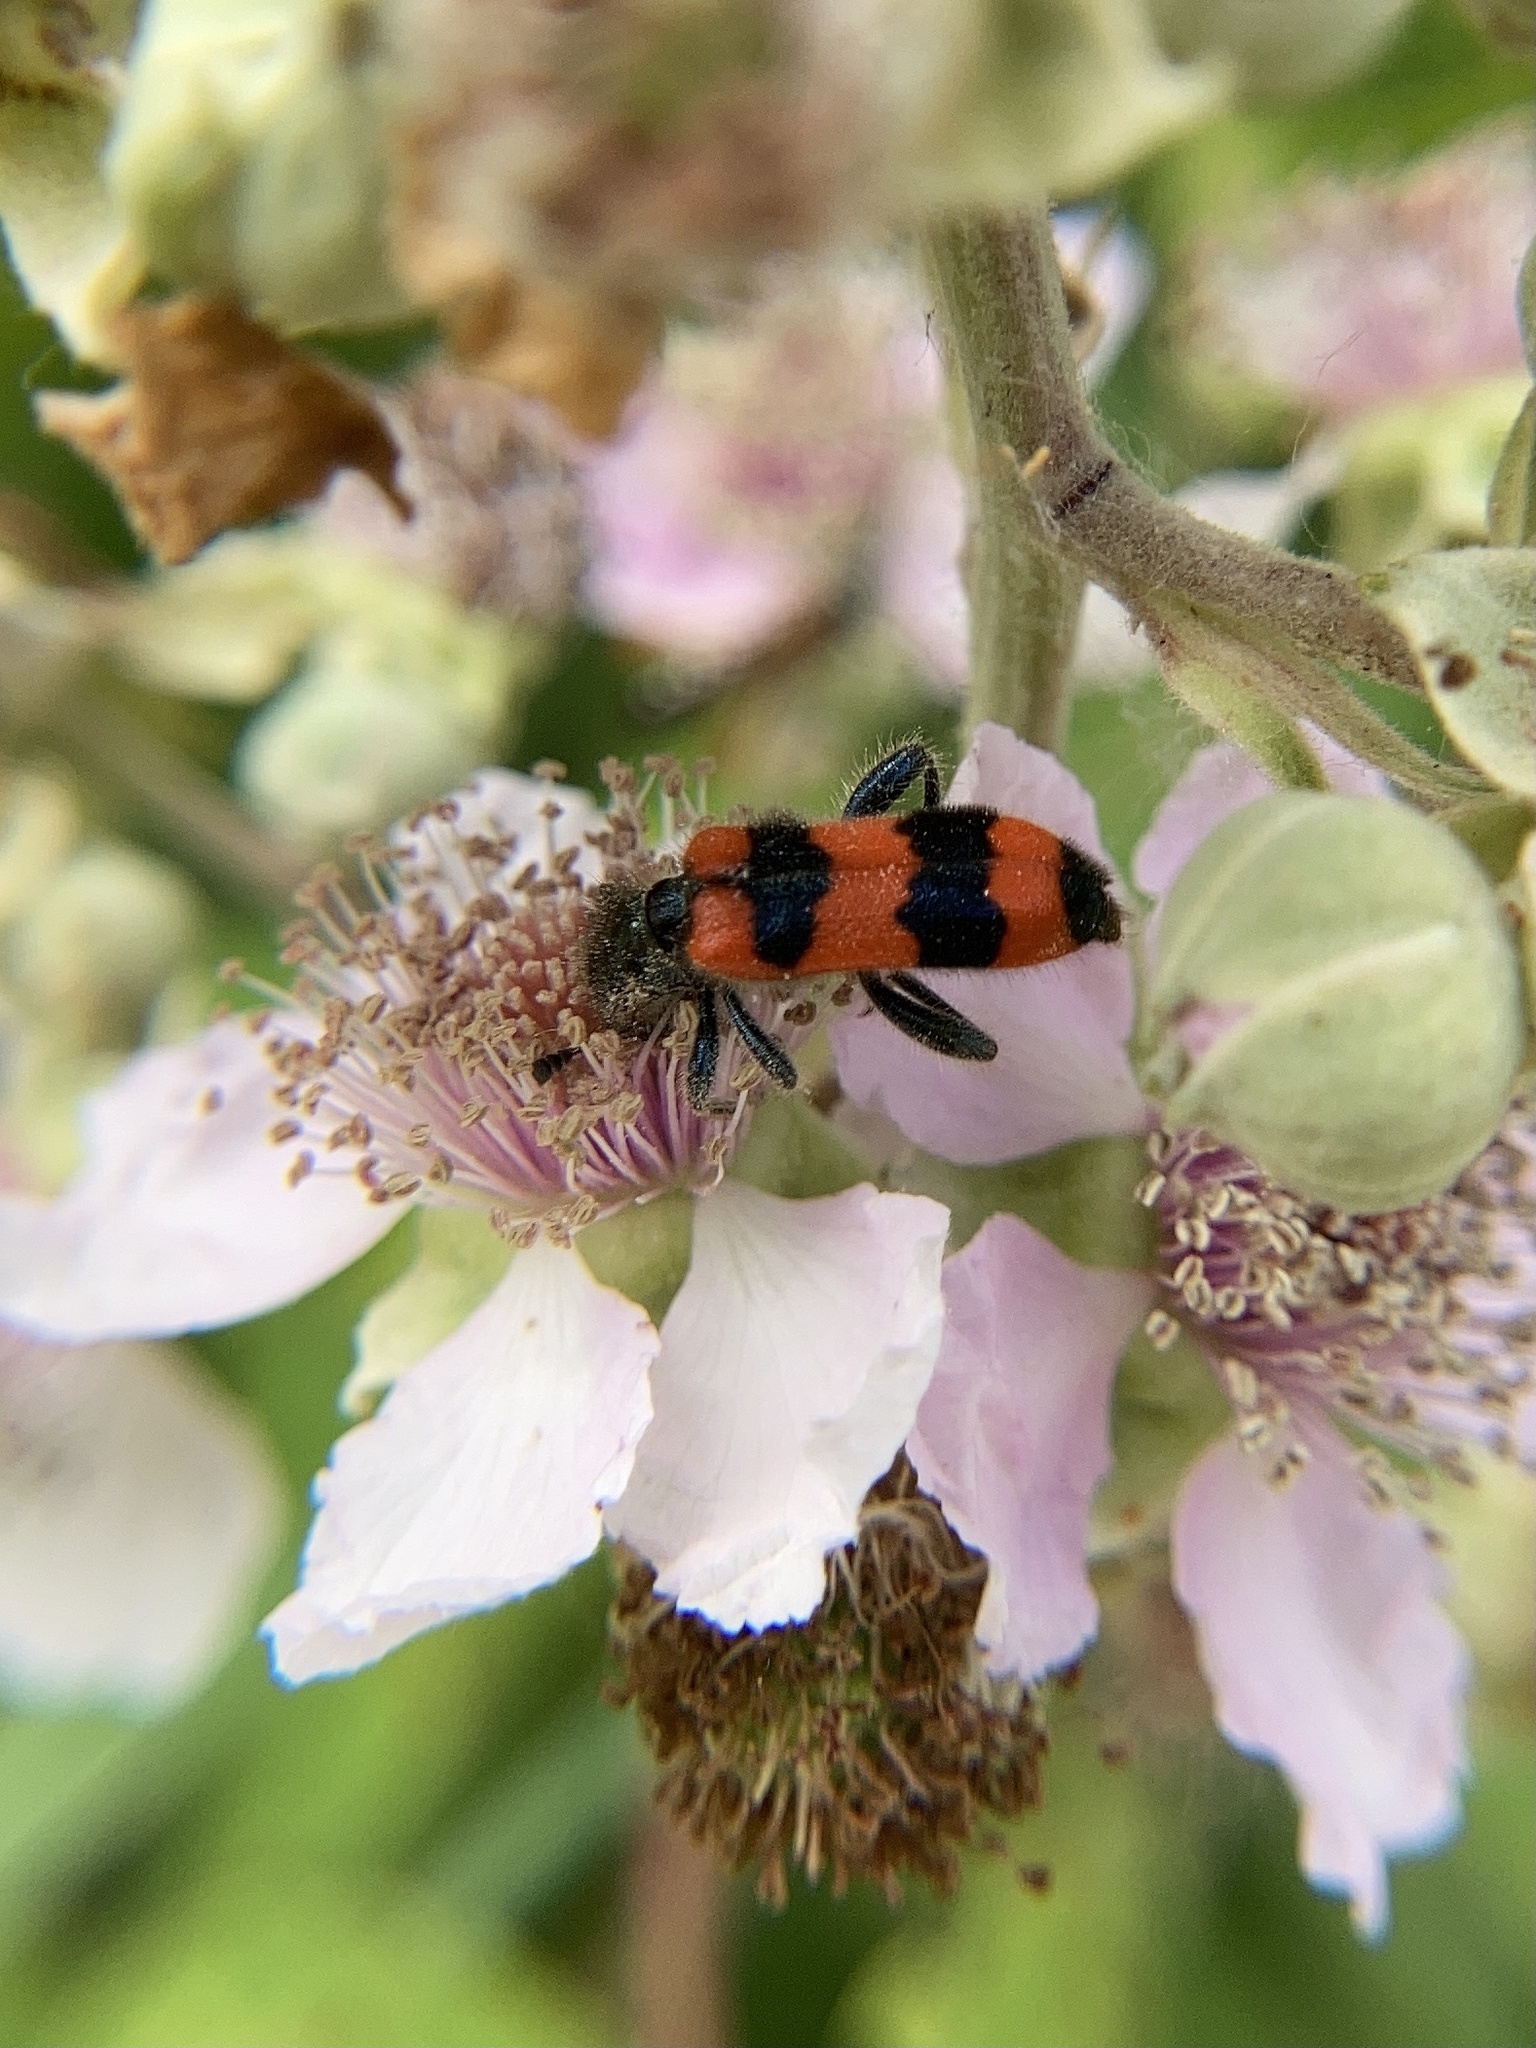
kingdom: Animalia
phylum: Arthropoda
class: Insecta
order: Coleoptera
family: Cleridae
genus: Trichodes
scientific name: Trichodes apiarius
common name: Bee-eating beetle
